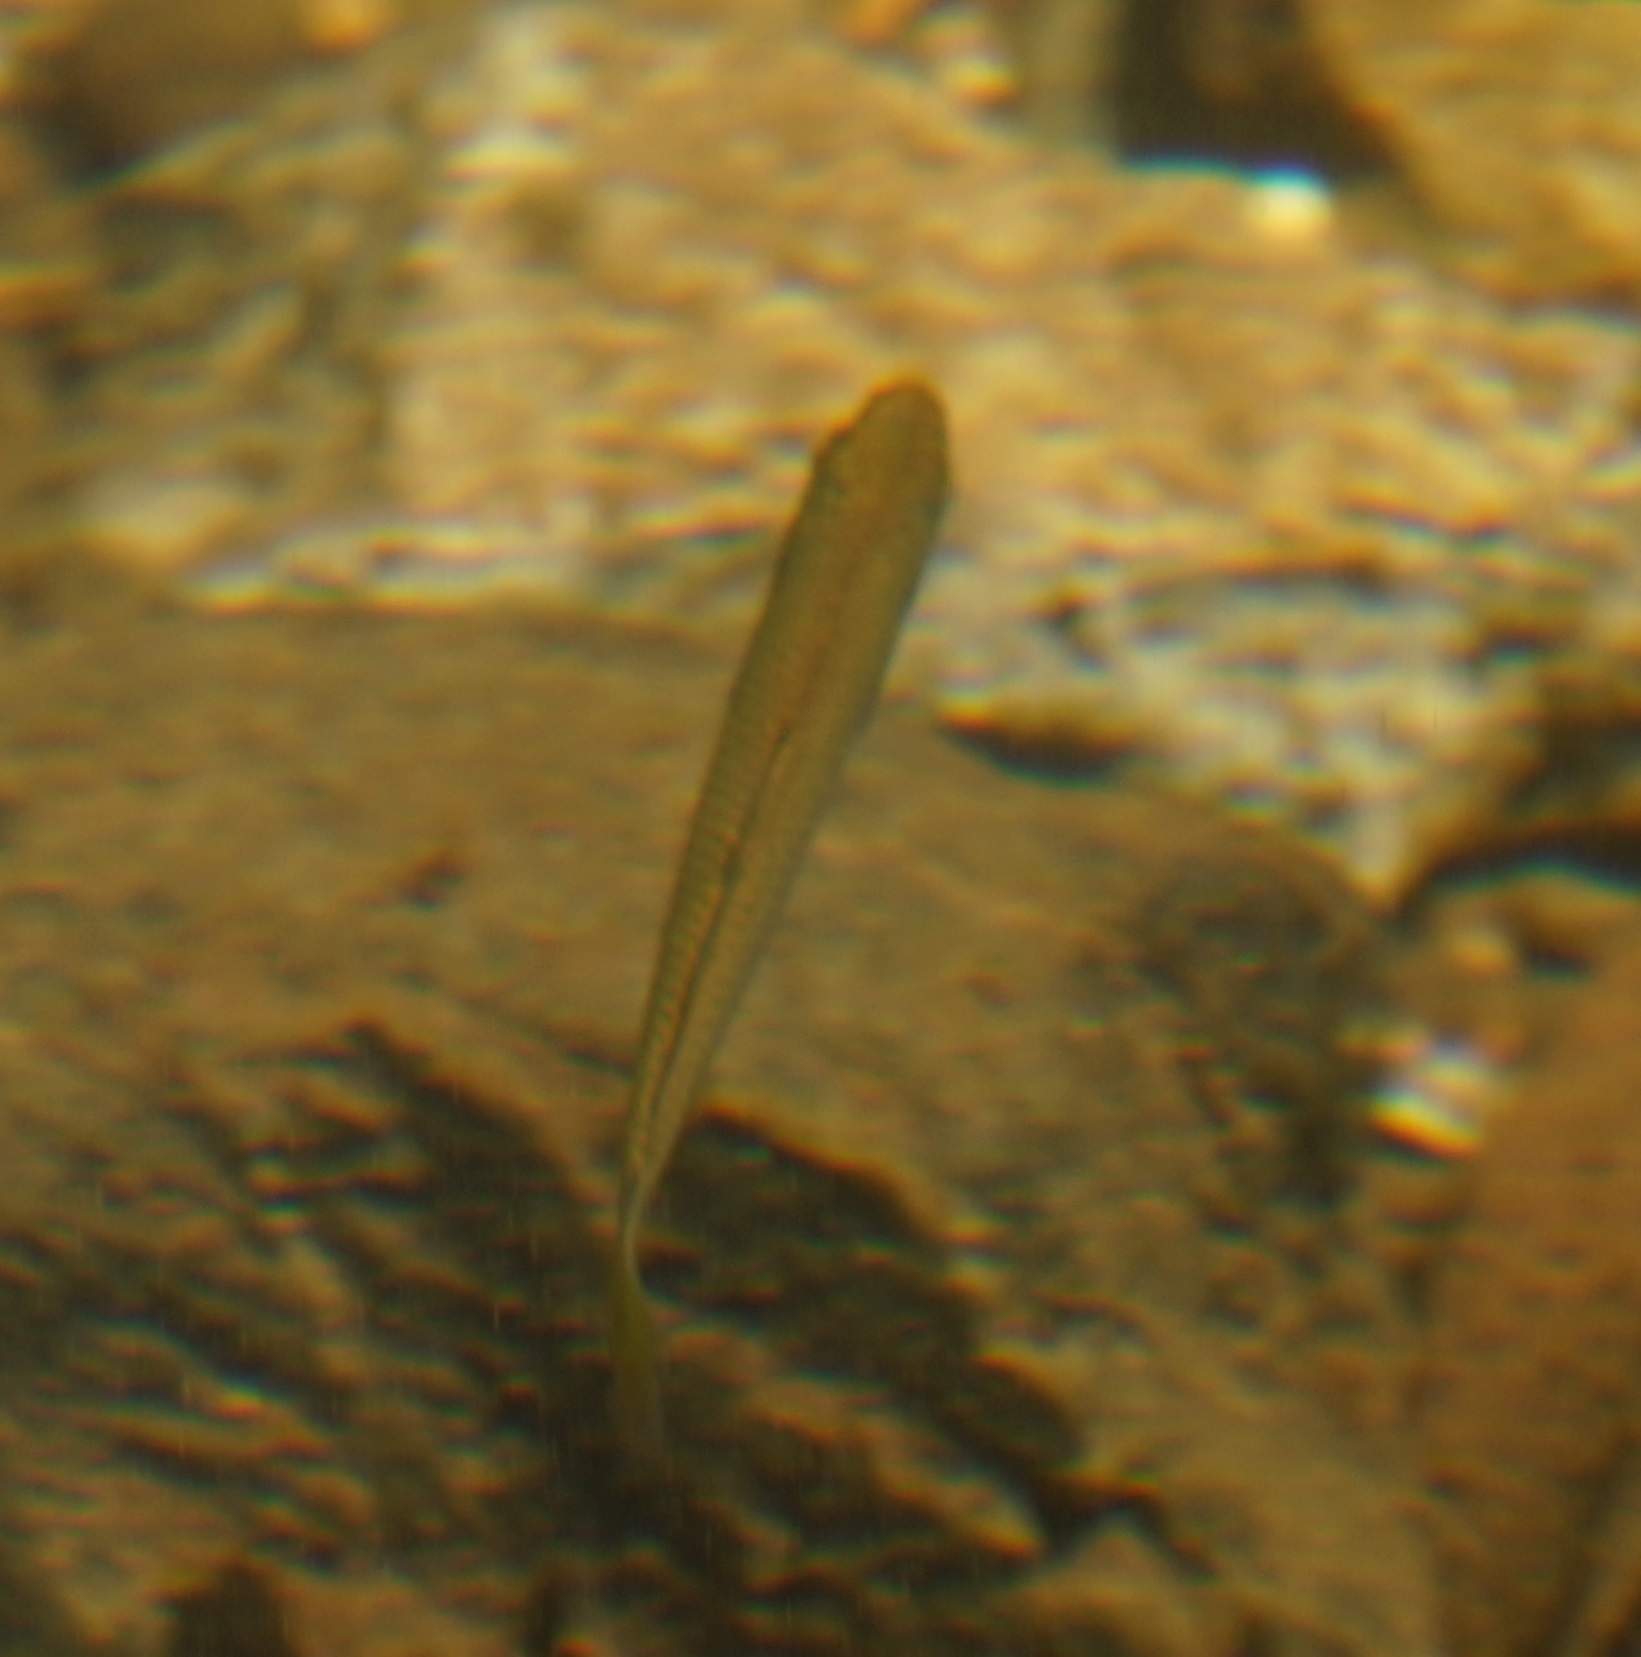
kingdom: Animalia
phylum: Chordata
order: Atheriniformes
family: Melanotaeniidae
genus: Melanotaenia
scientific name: Melanotaenia splendida
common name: Checkered rainbowfish
